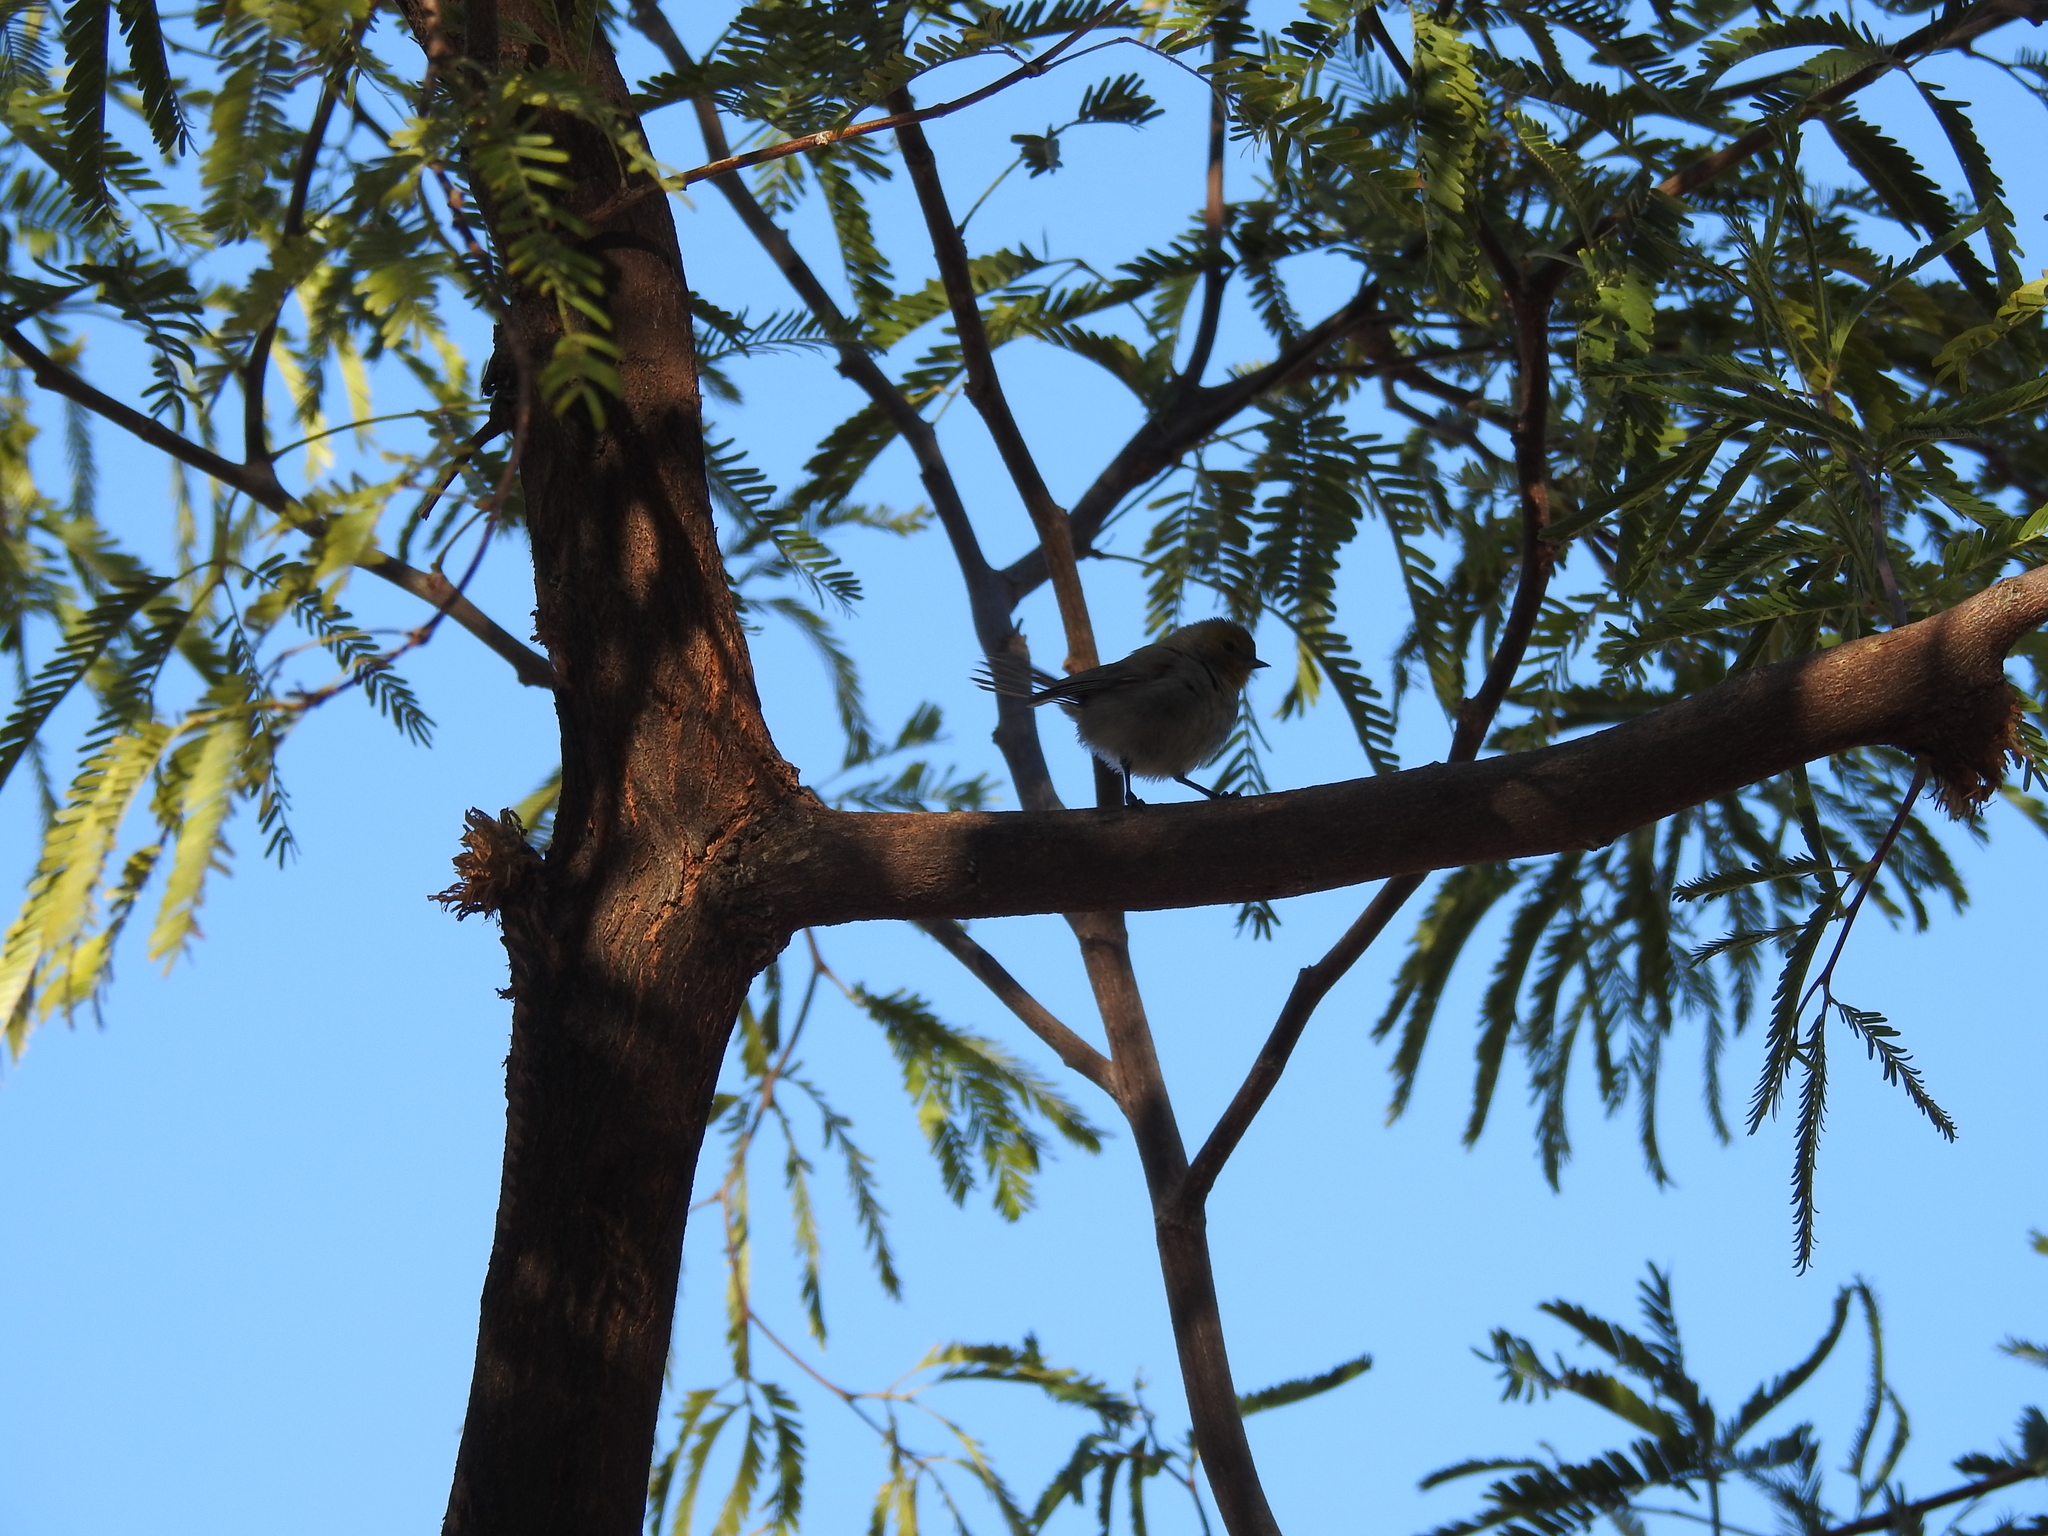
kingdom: Animalia
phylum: Chordata
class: Aves
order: Passeriformes
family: Remizidae
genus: Auriparus
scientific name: Auriparus flaviceps
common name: Verdin
